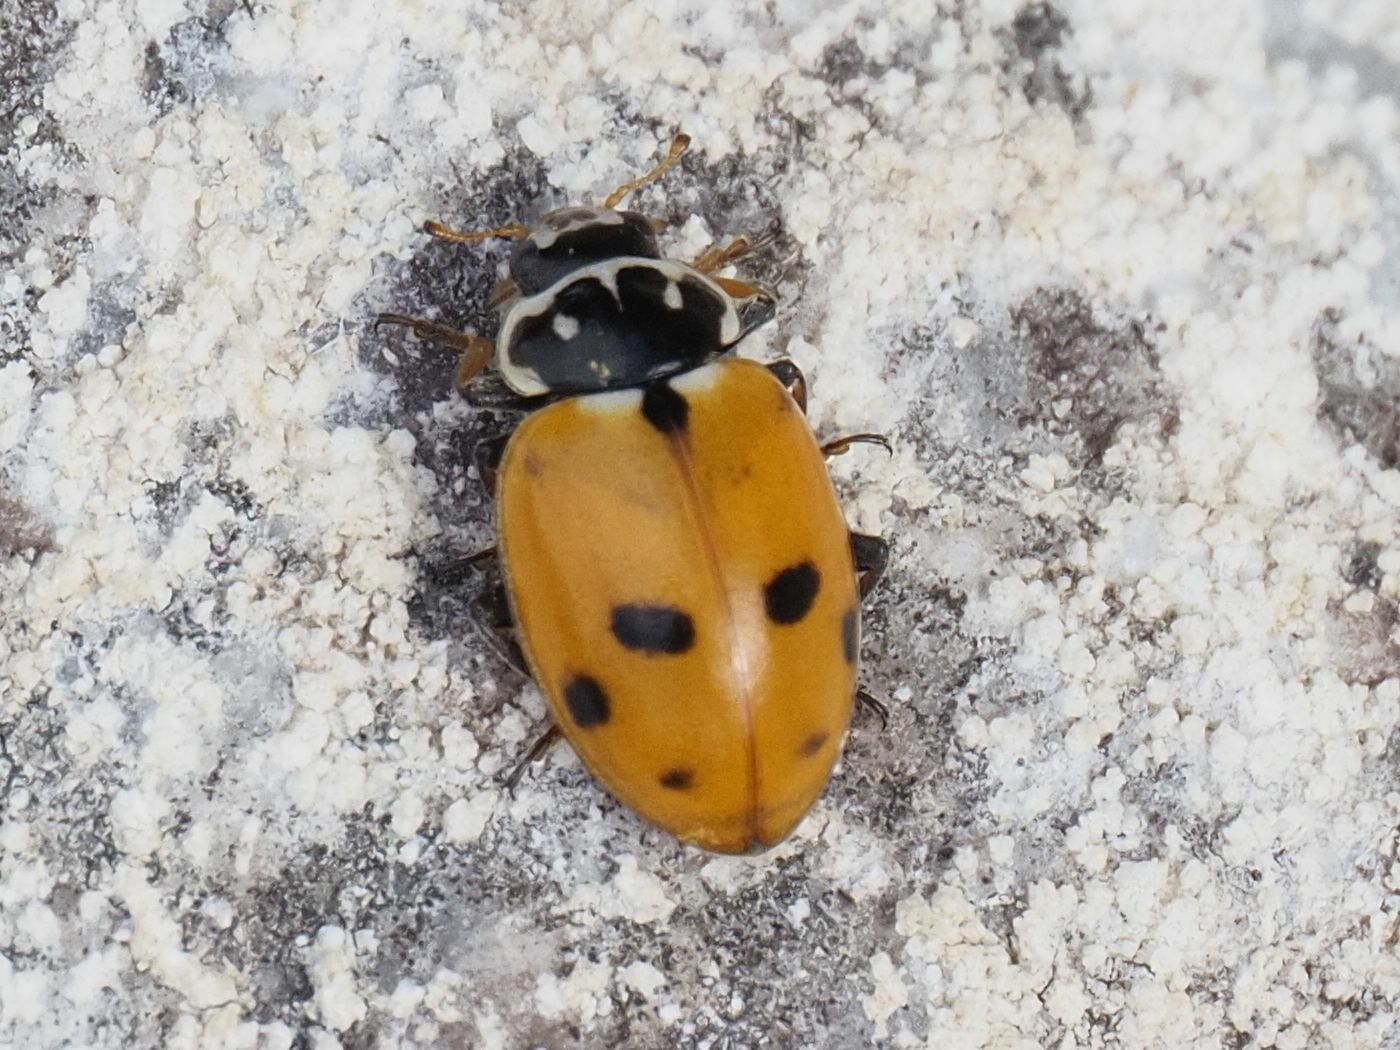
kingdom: Animalia
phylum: Arthropoda
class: Insecta
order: Coleoptera
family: Coccinellidae
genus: Hippodamia
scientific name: Hippodamia variegata
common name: Ladybird beetle
